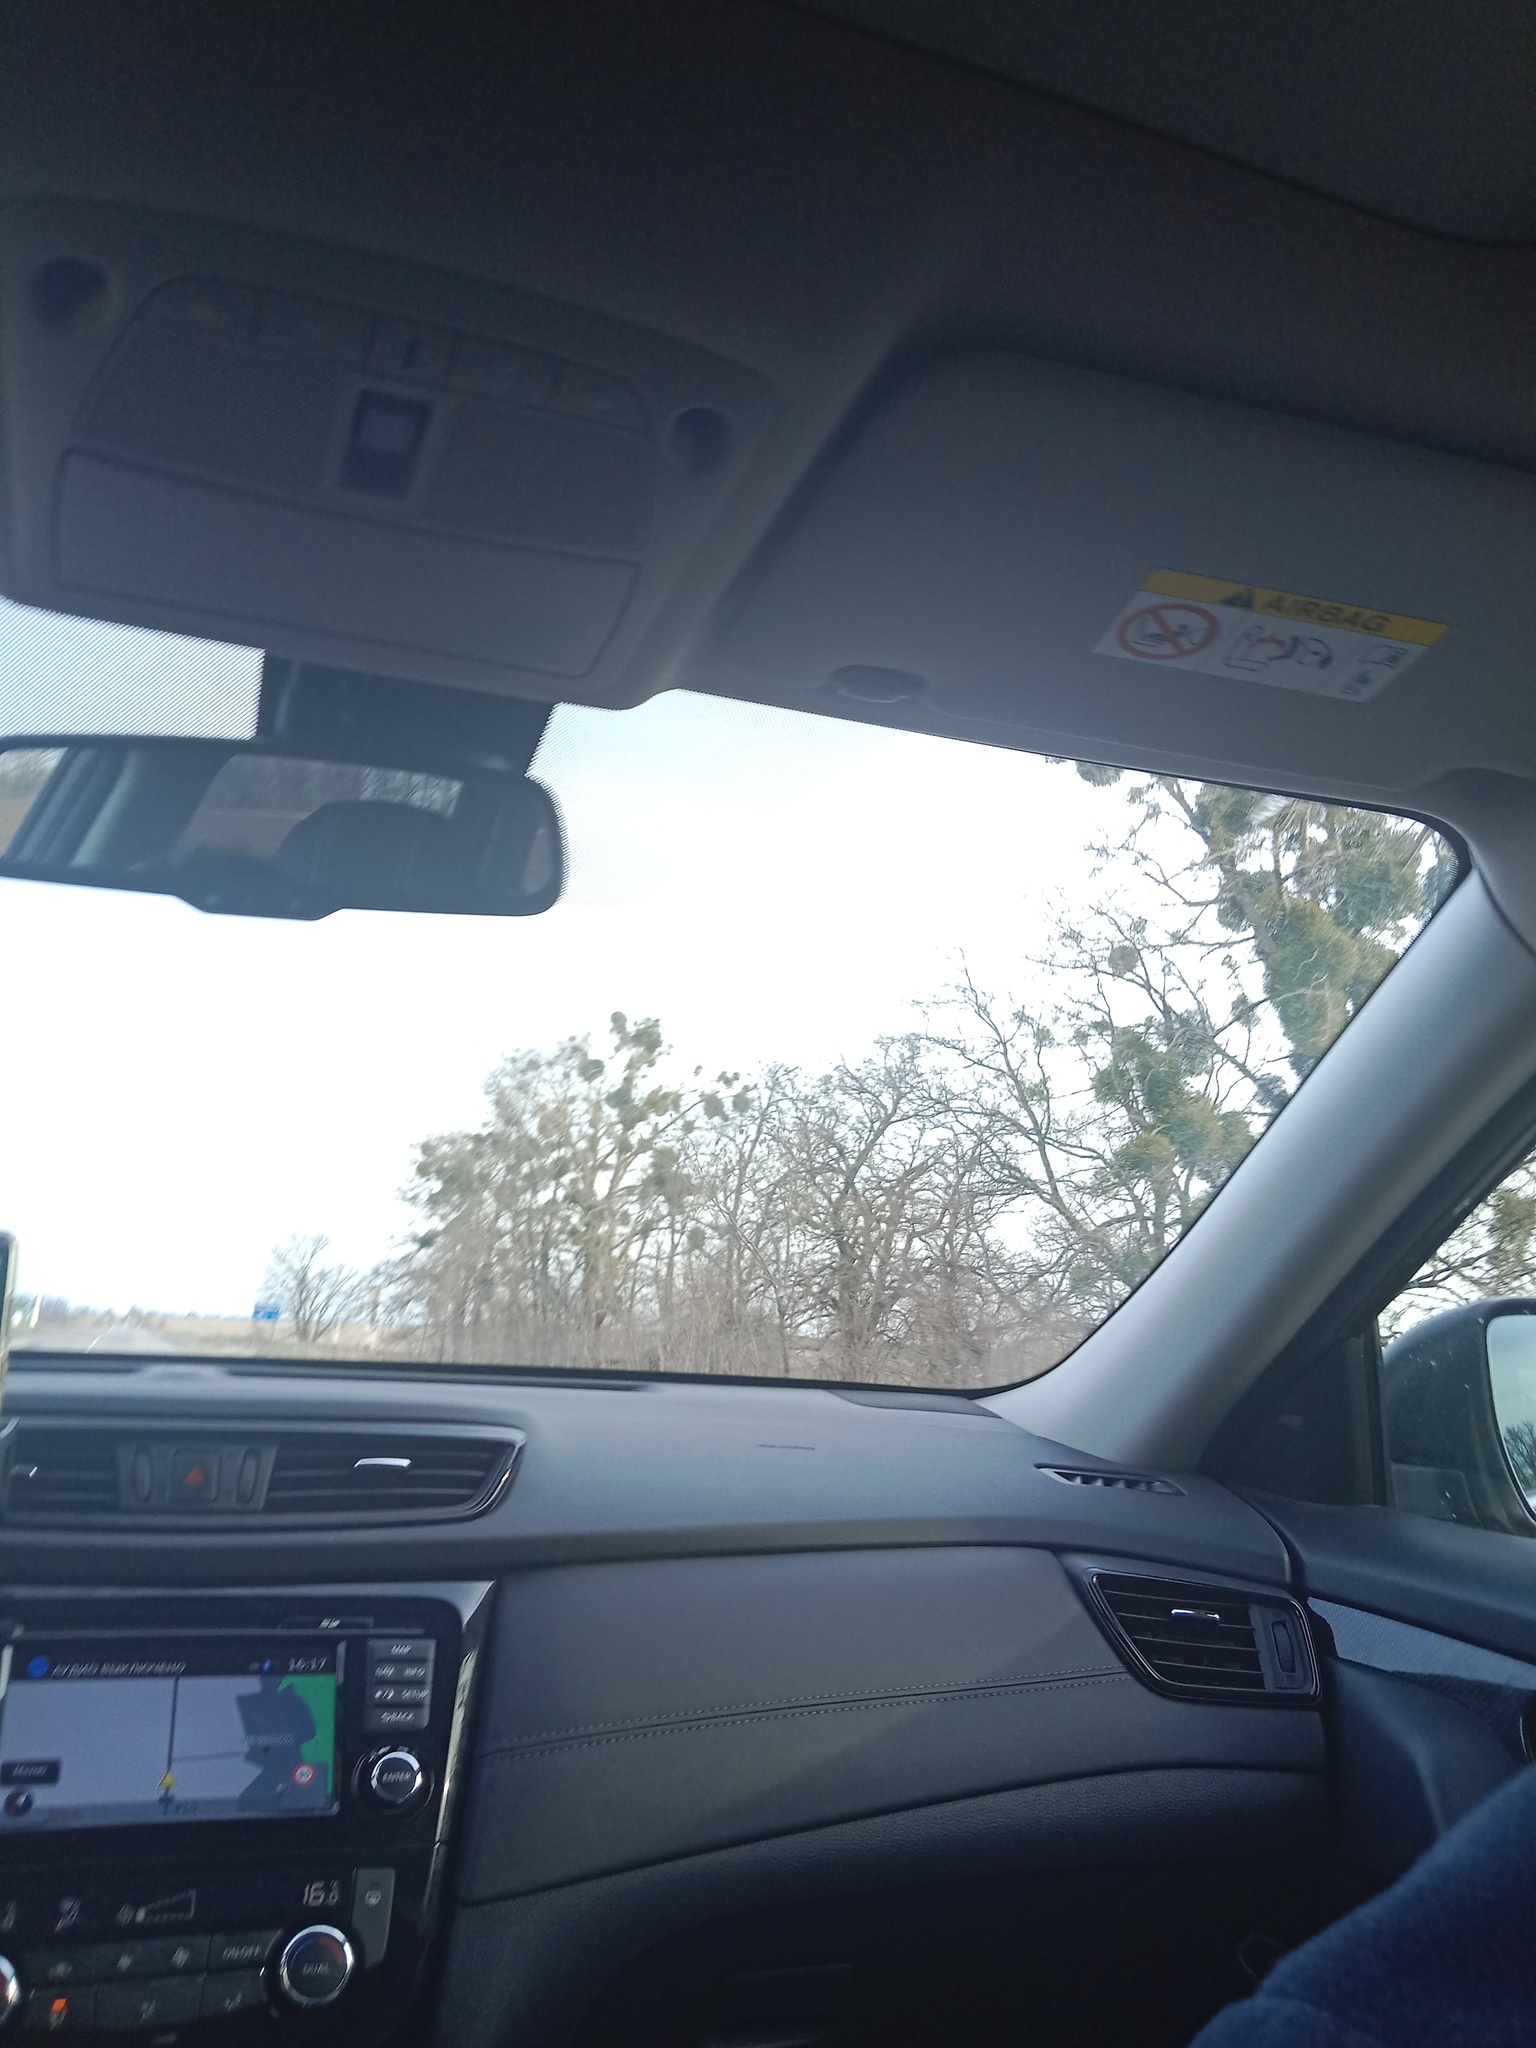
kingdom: Plantae
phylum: Tracheophyta
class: Magnoliopsida
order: Santalales
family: Viscaceae
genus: Viscum
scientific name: Viscum album
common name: Mistletoe
